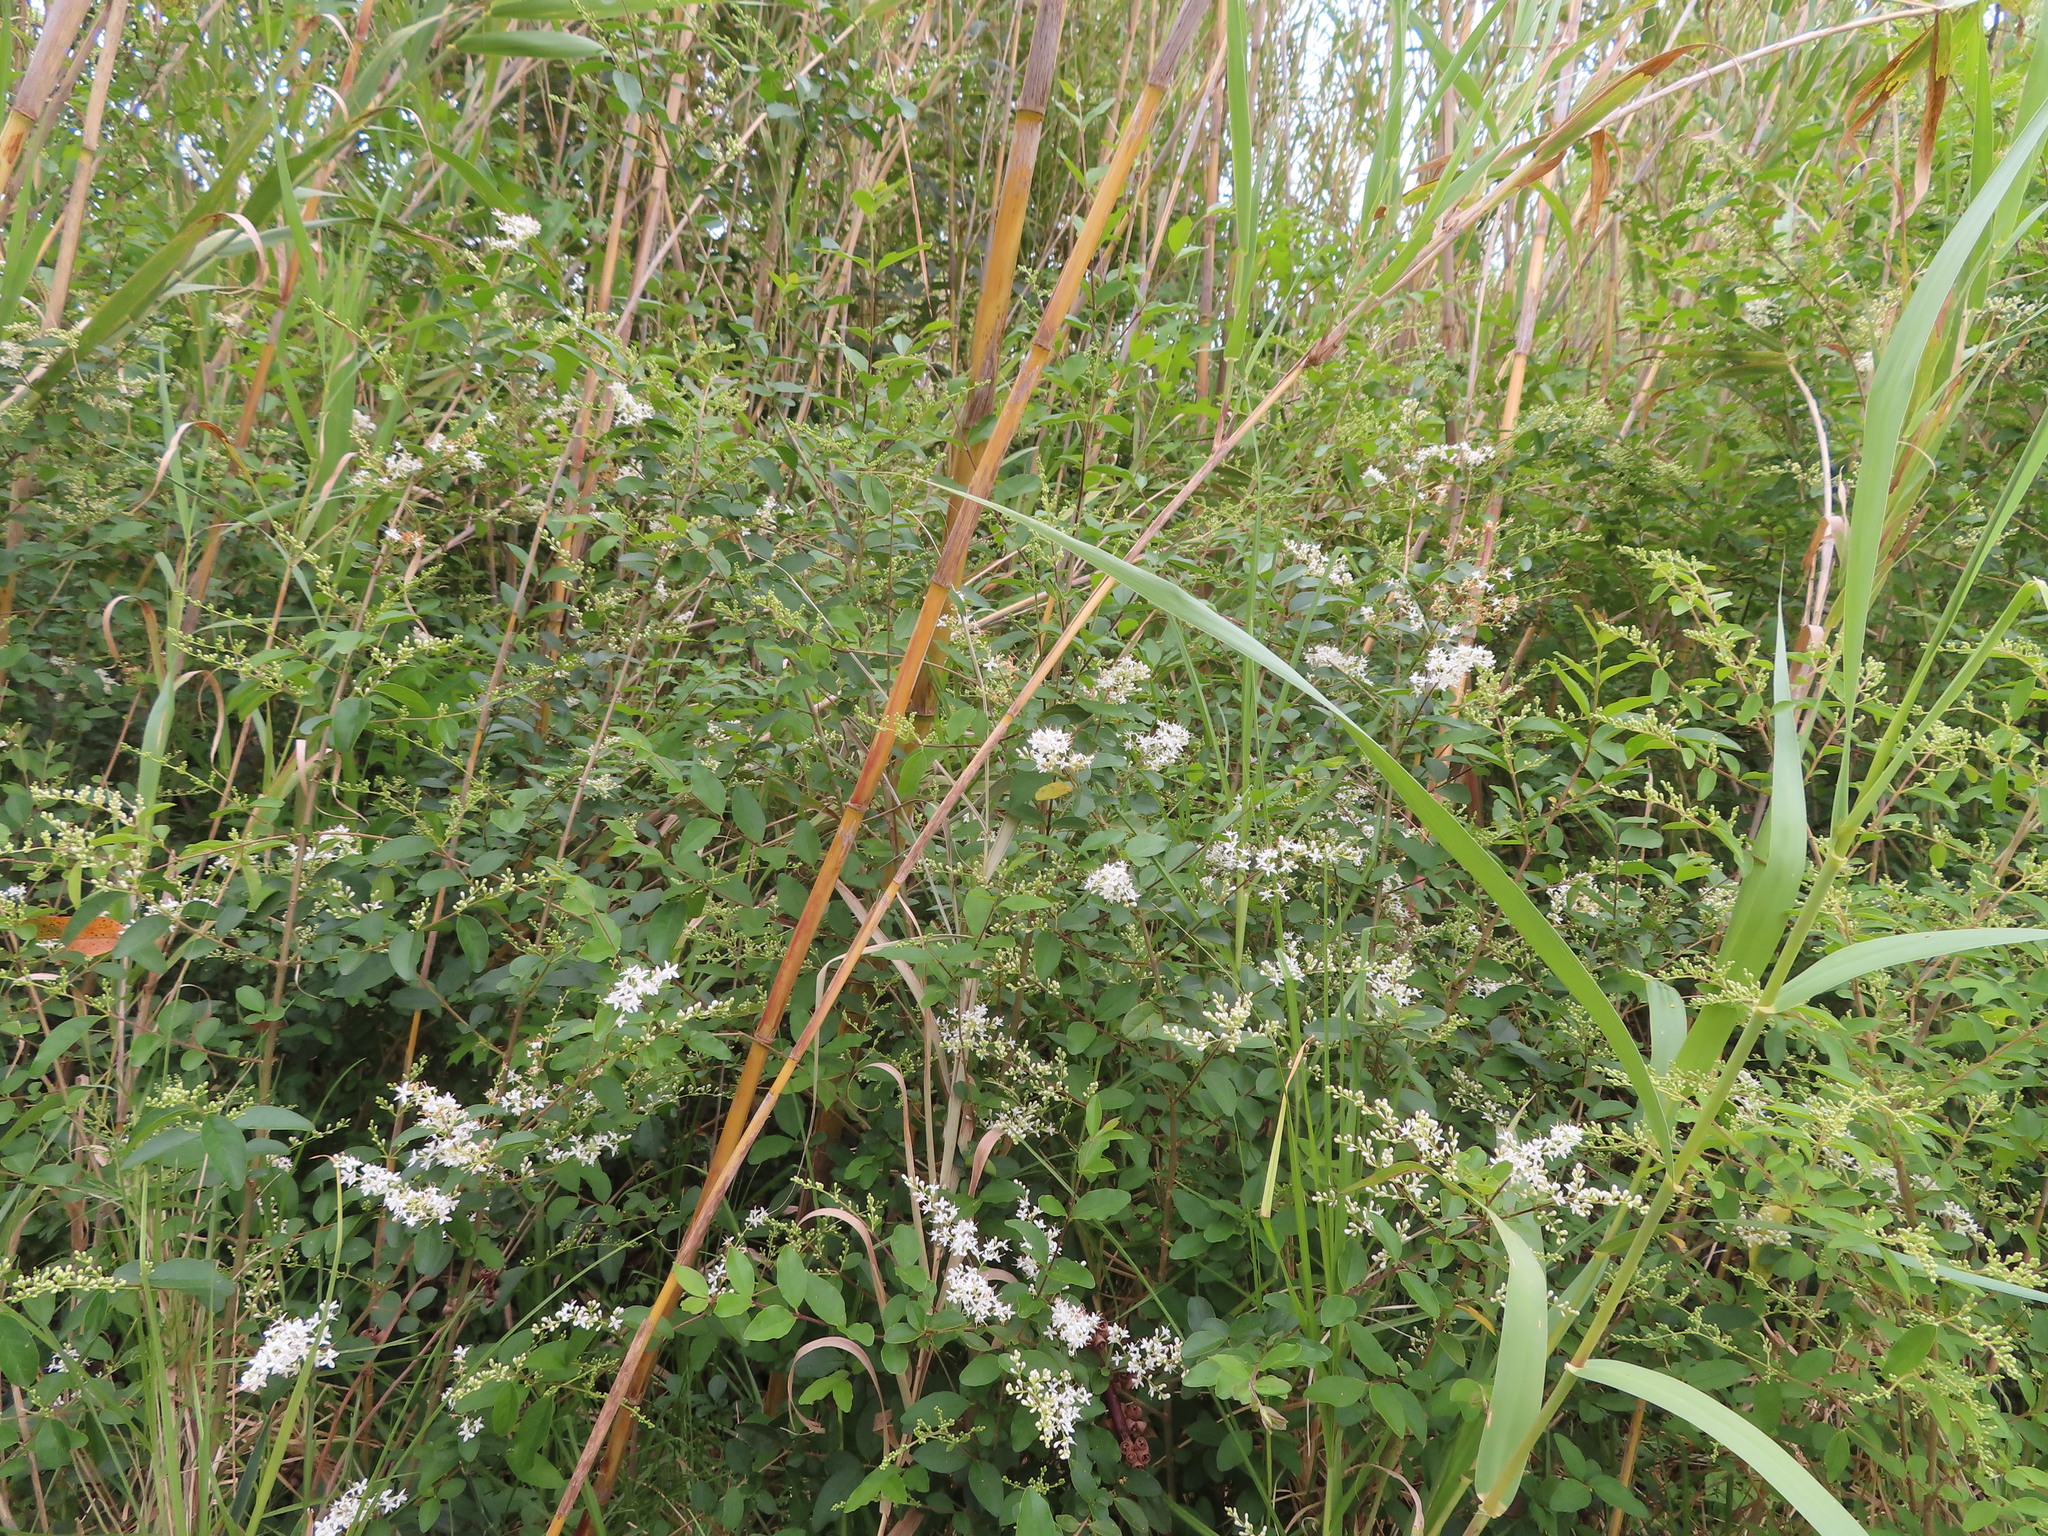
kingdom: Plantae
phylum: Tracheophyta
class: Magnoliopsida
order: Lamiales
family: Oleaceae
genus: Ligustrum
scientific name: Ligustrum sinense
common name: Chinese privet
